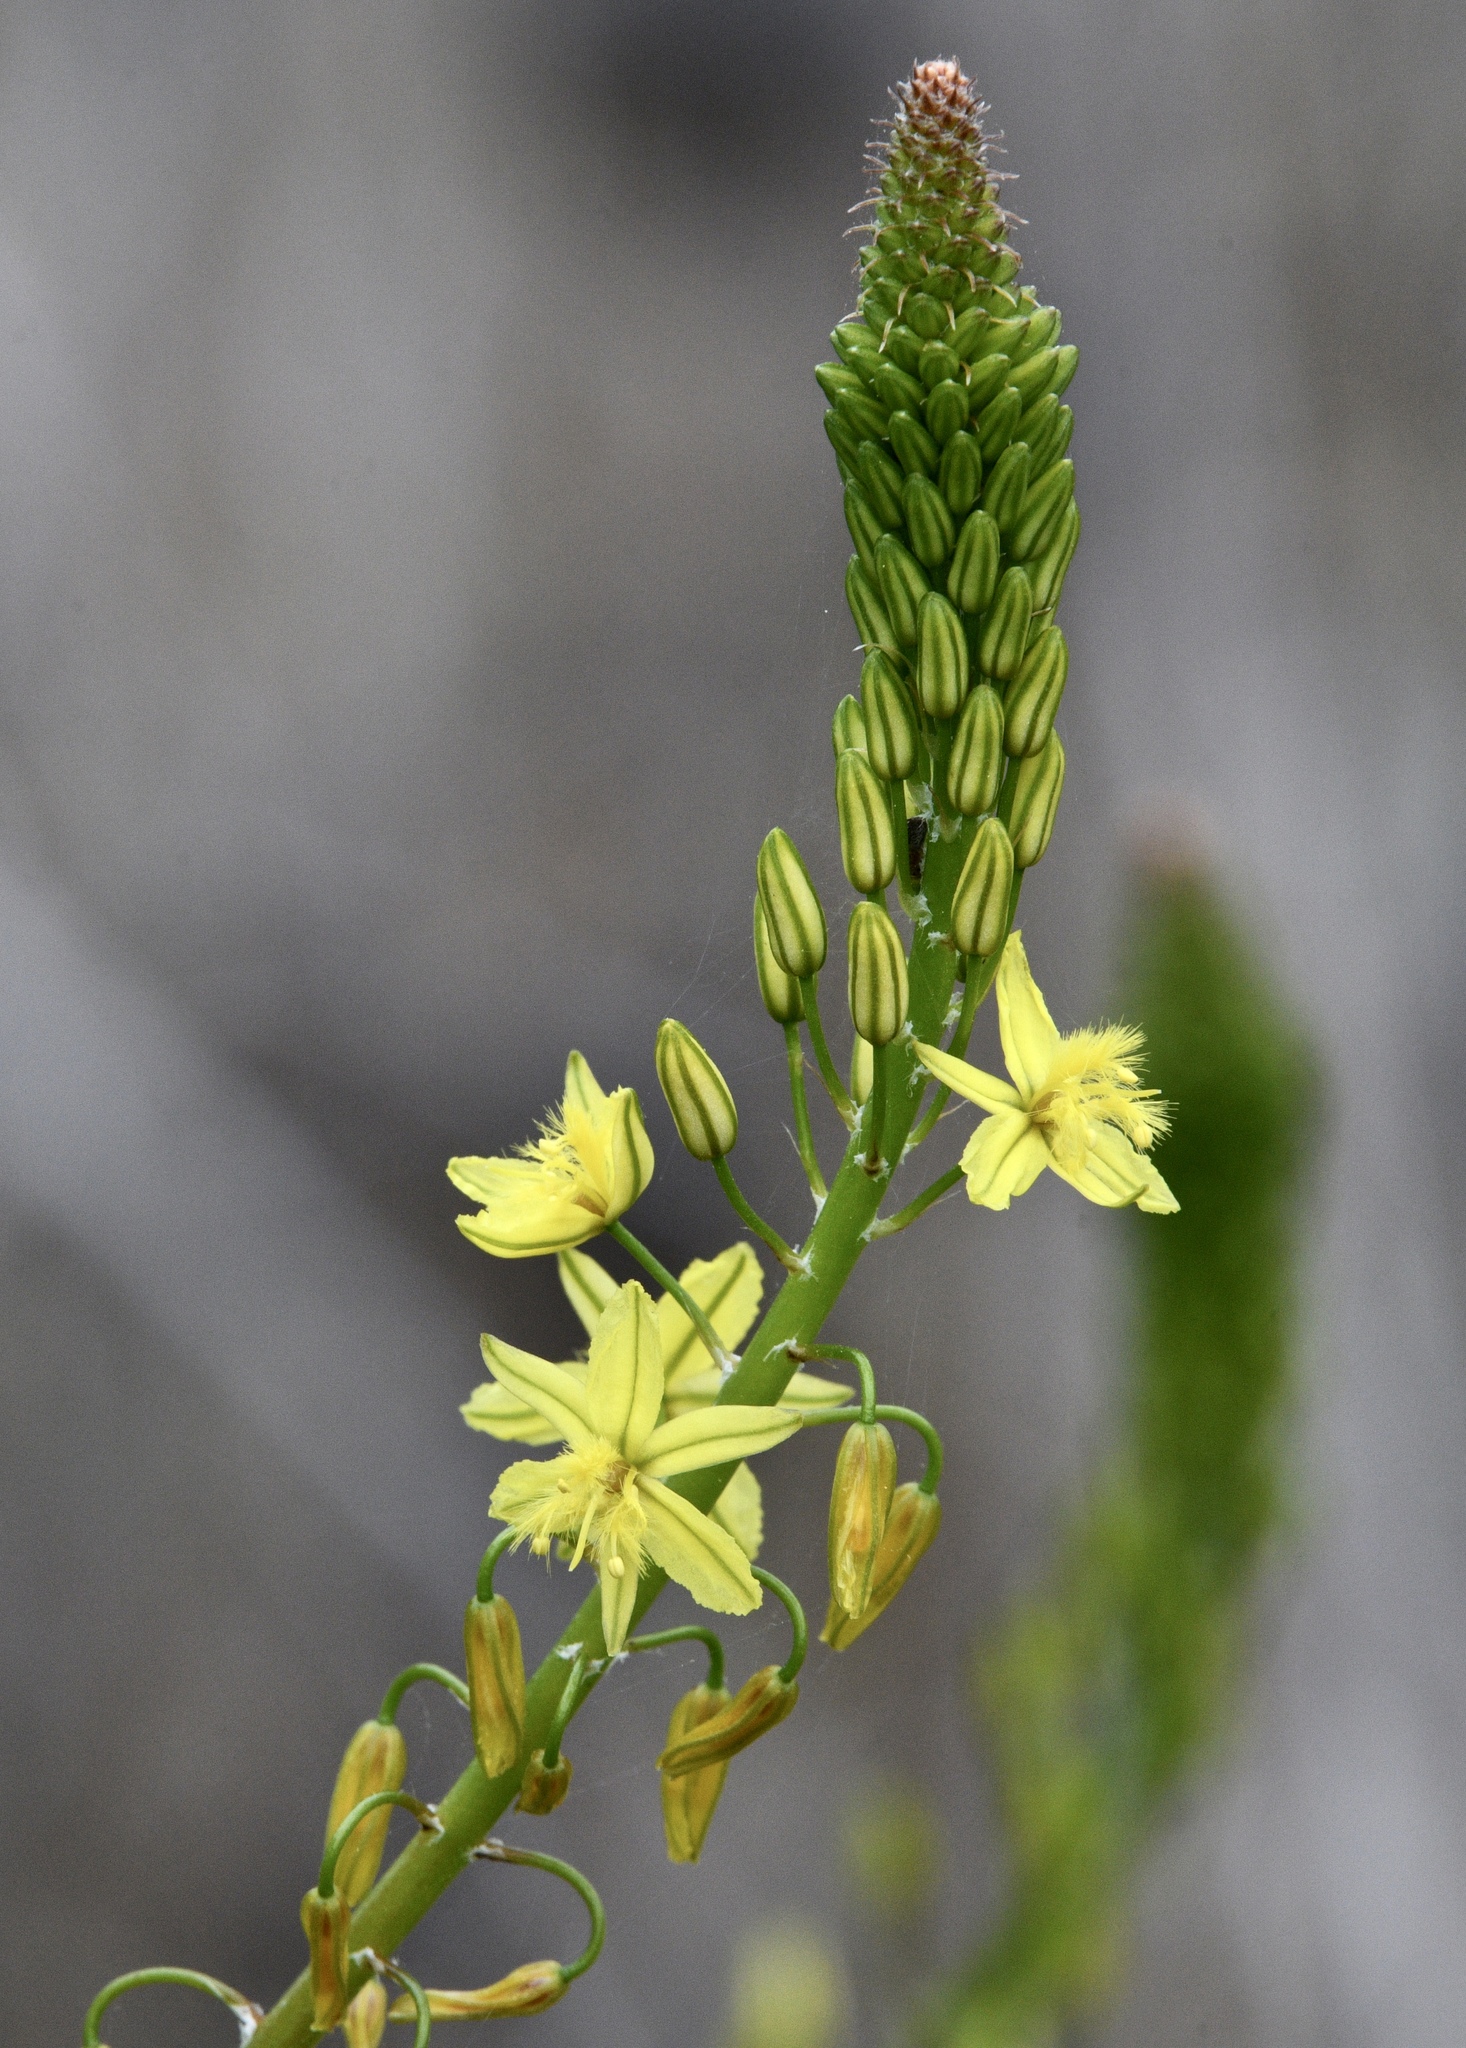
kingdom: Plantae
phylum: Tracheophyta
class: Liliopsida
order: Asparagales
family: Asphodelaceae
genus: Bulbine
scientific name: Bulbine frutescens
